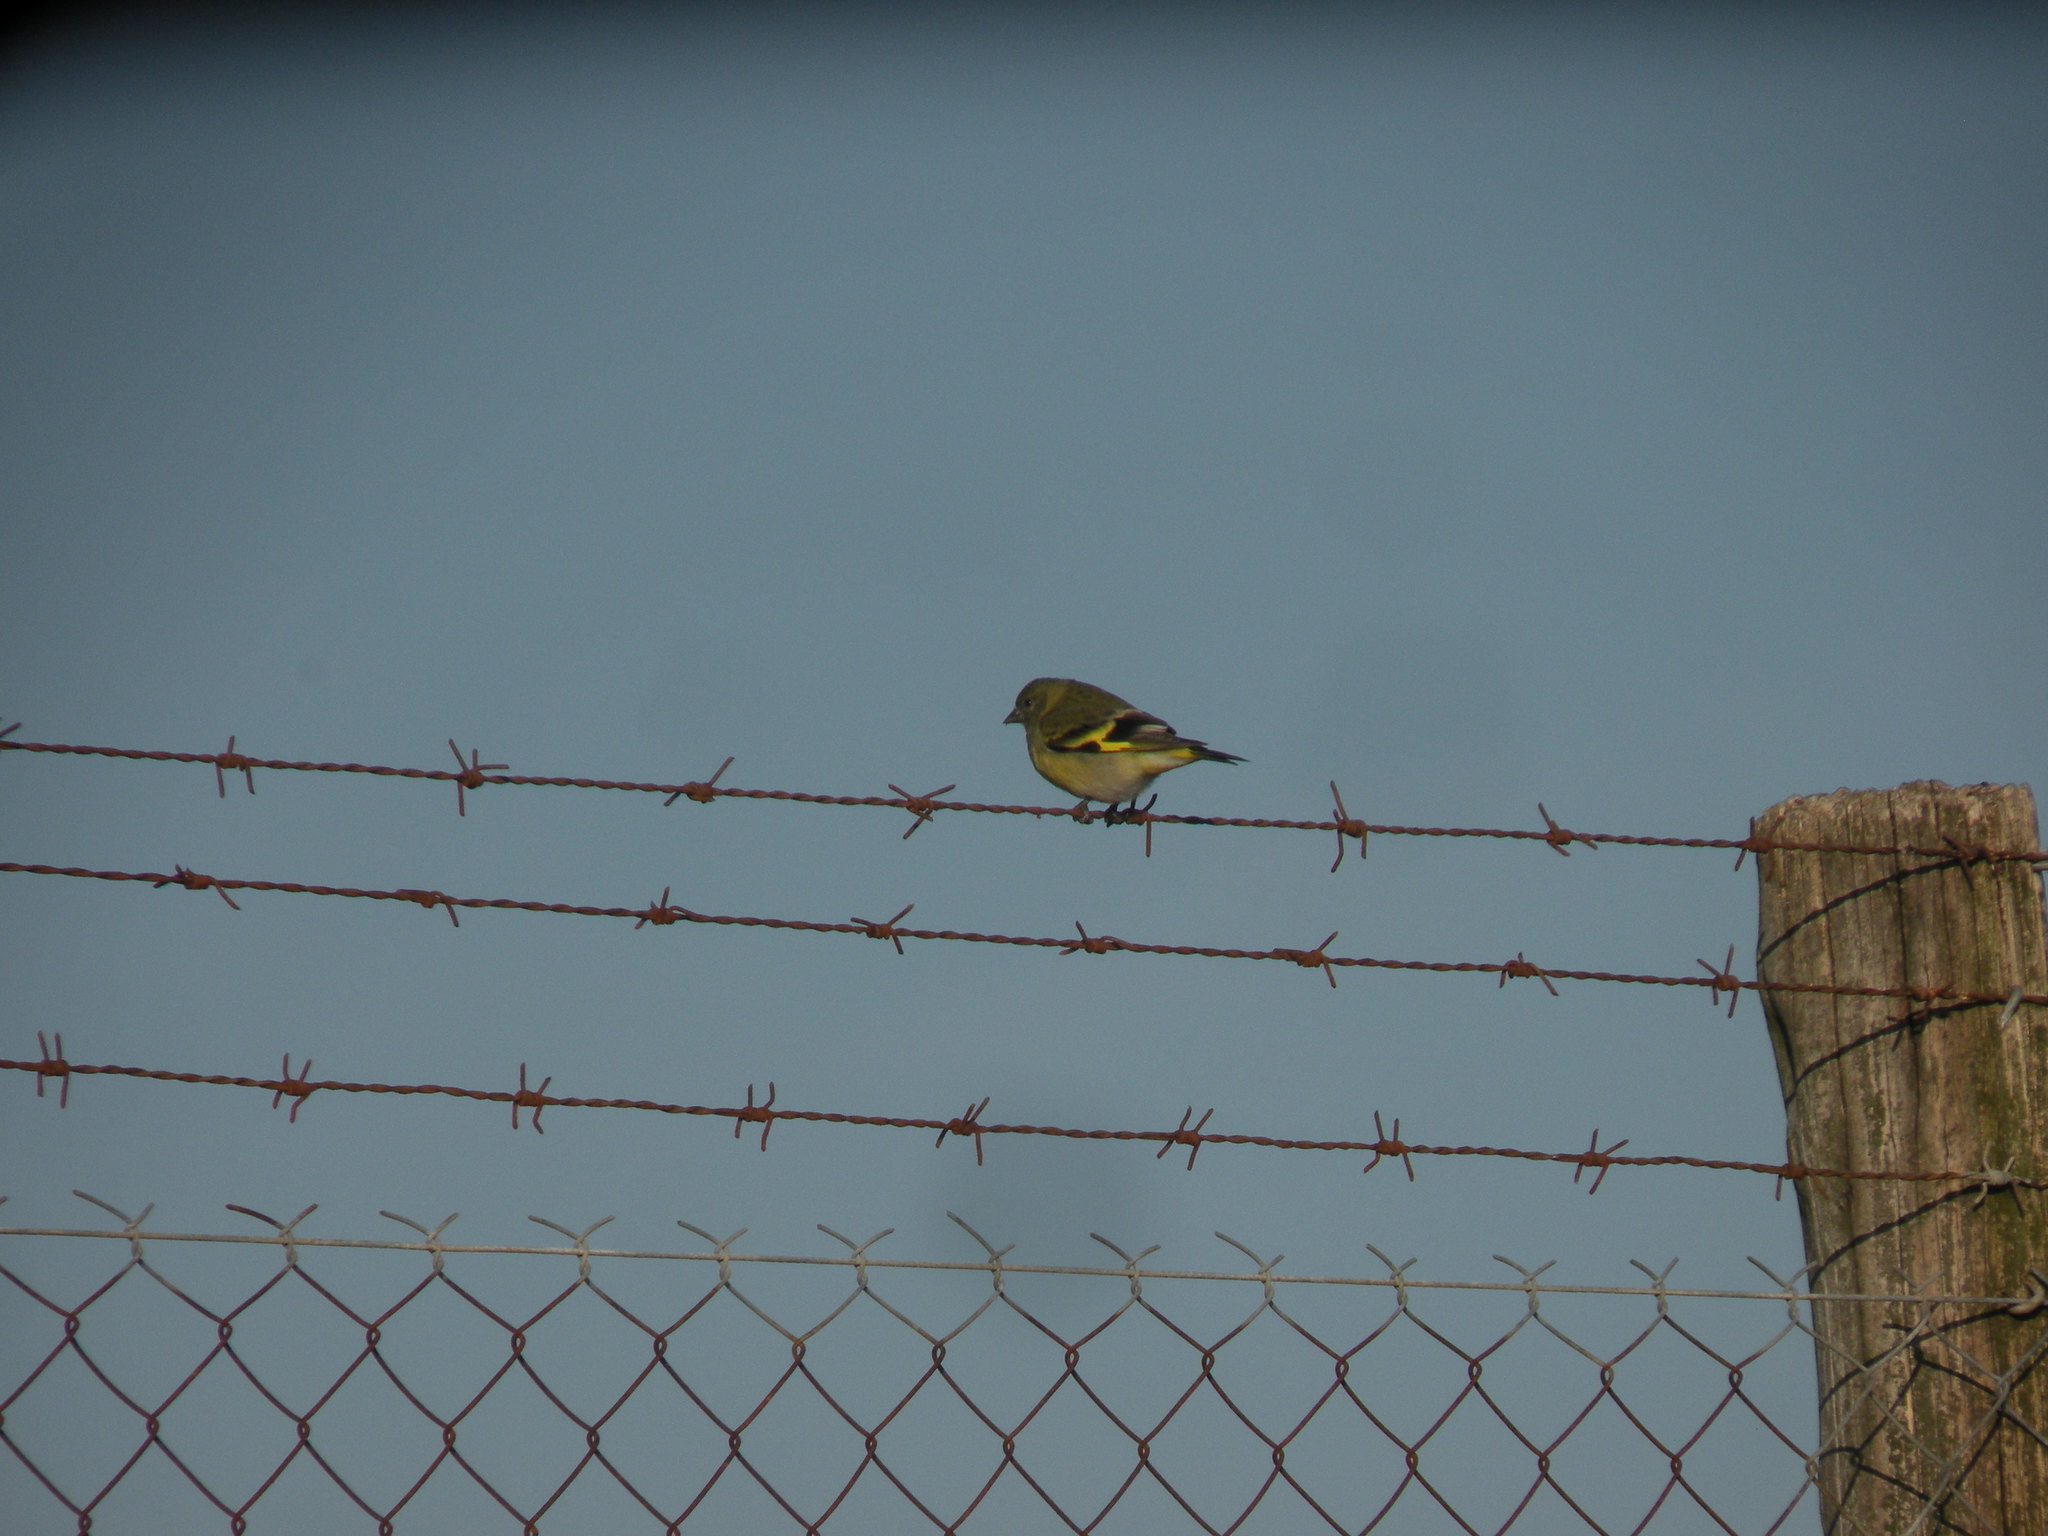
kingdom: Animalia
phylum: Chordata
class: Aves
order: Passeriformes
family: Fringillidae
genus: Spinus
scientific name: Spinus magellanicus
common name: Hooded siskin
